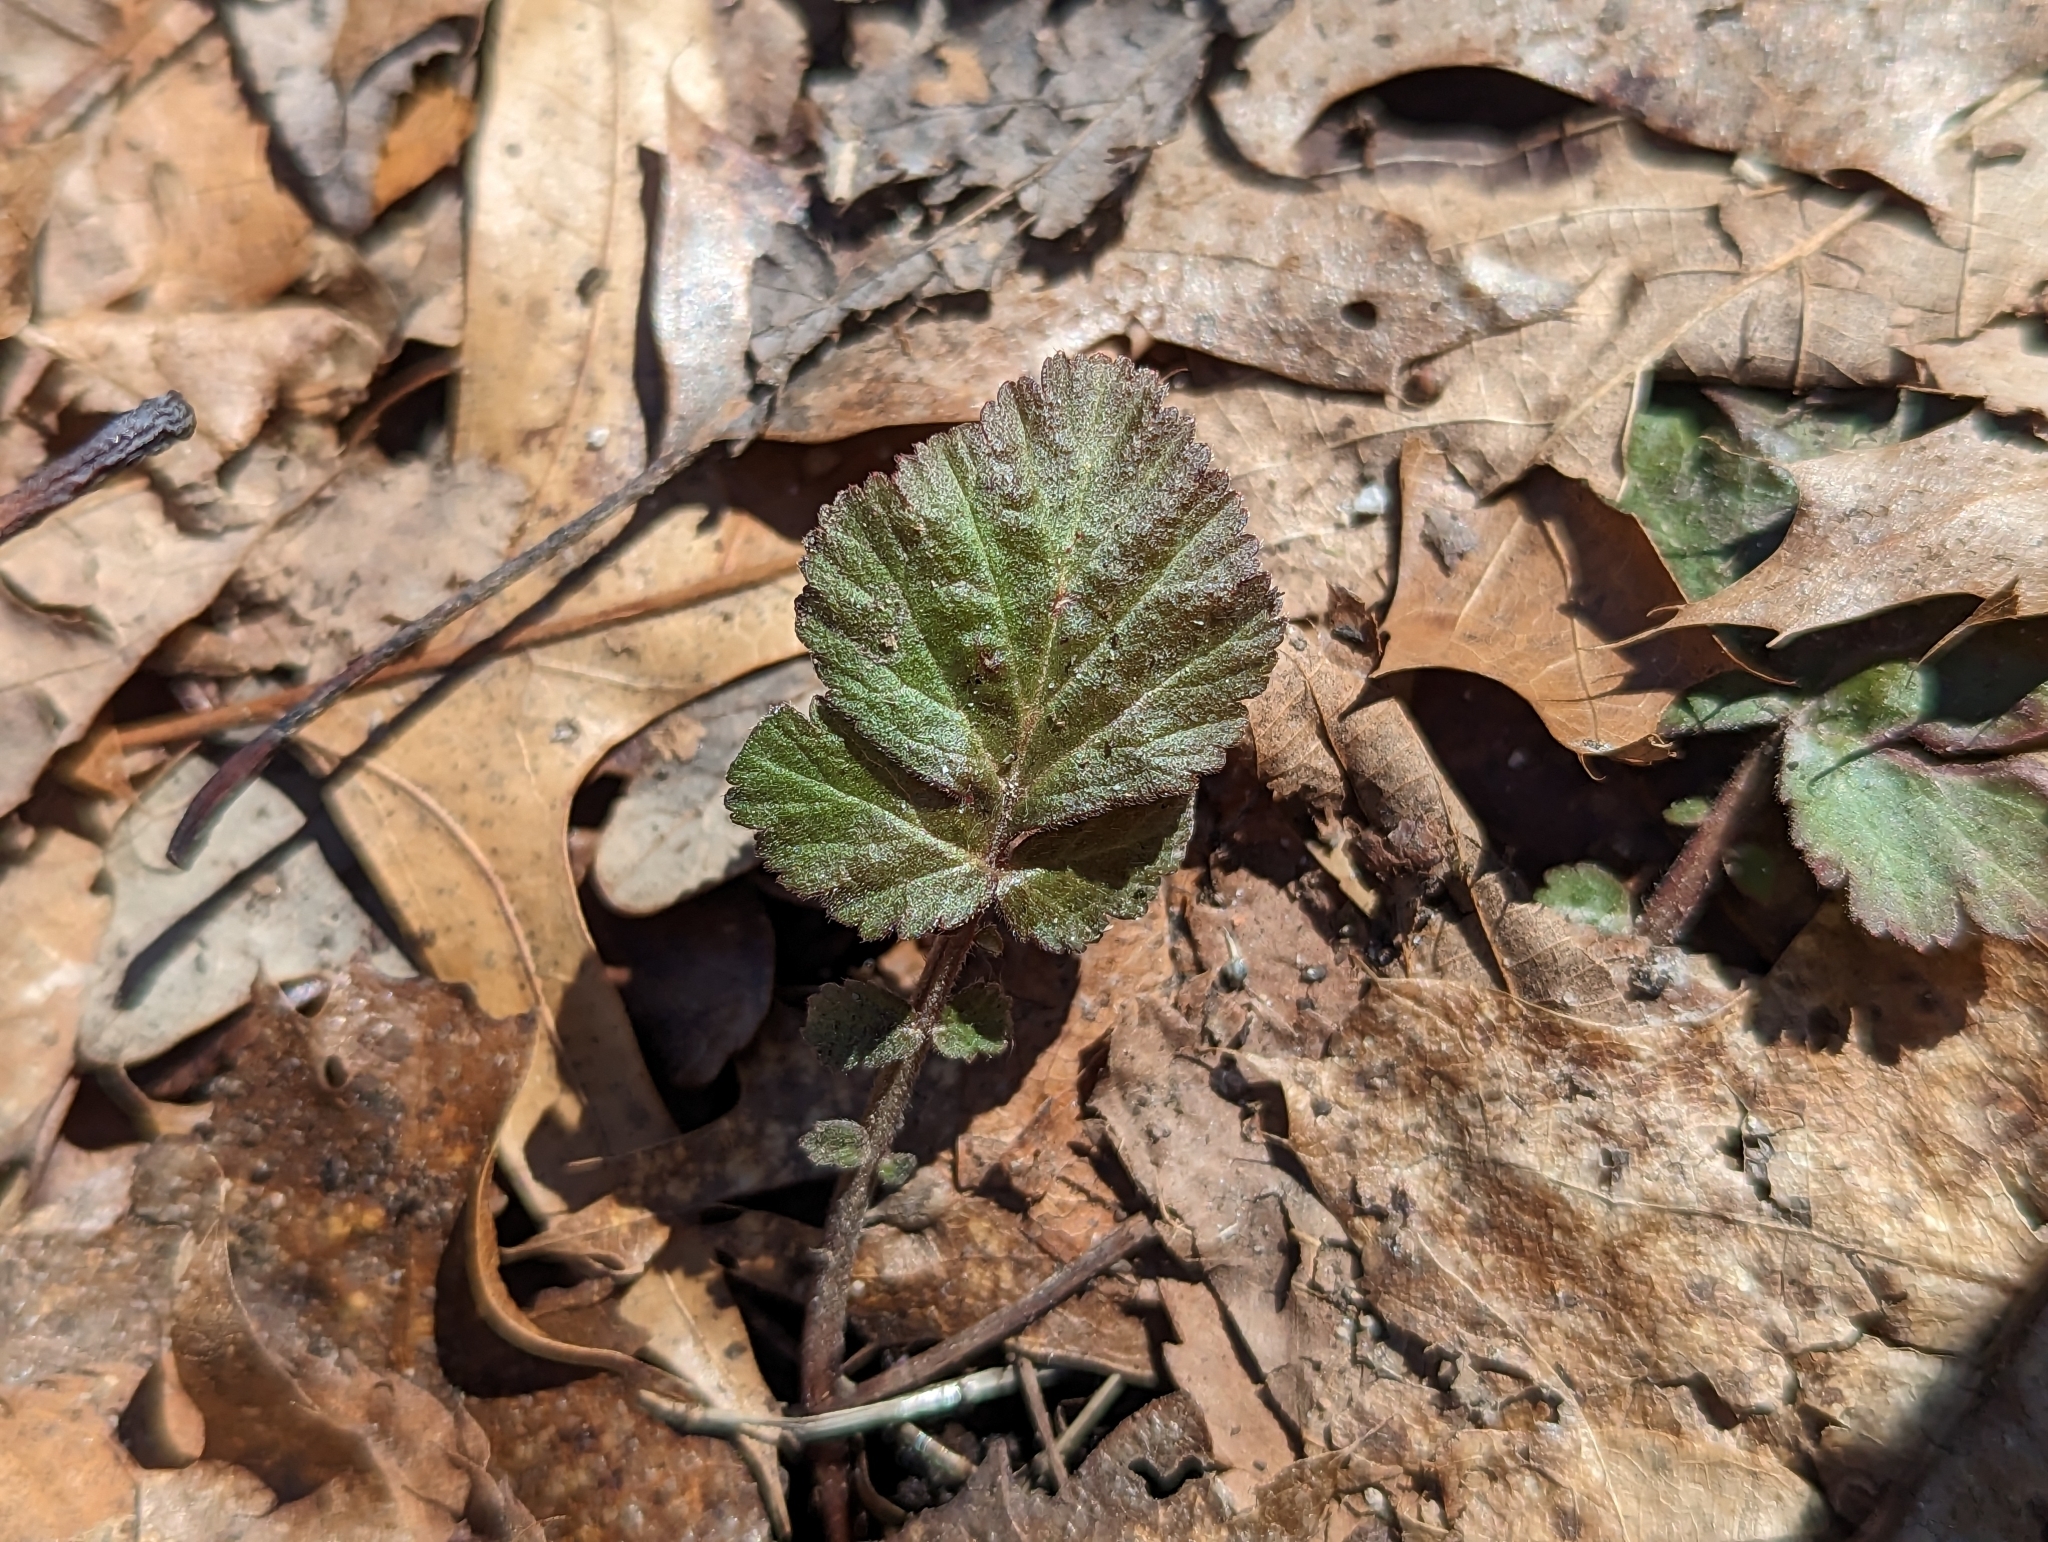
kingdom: Plantae
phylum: Tracheophyta
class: Magnoliopsida
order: Rosales
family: Rosaceae
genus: Geum
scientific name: Geum canadense
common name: White avens
